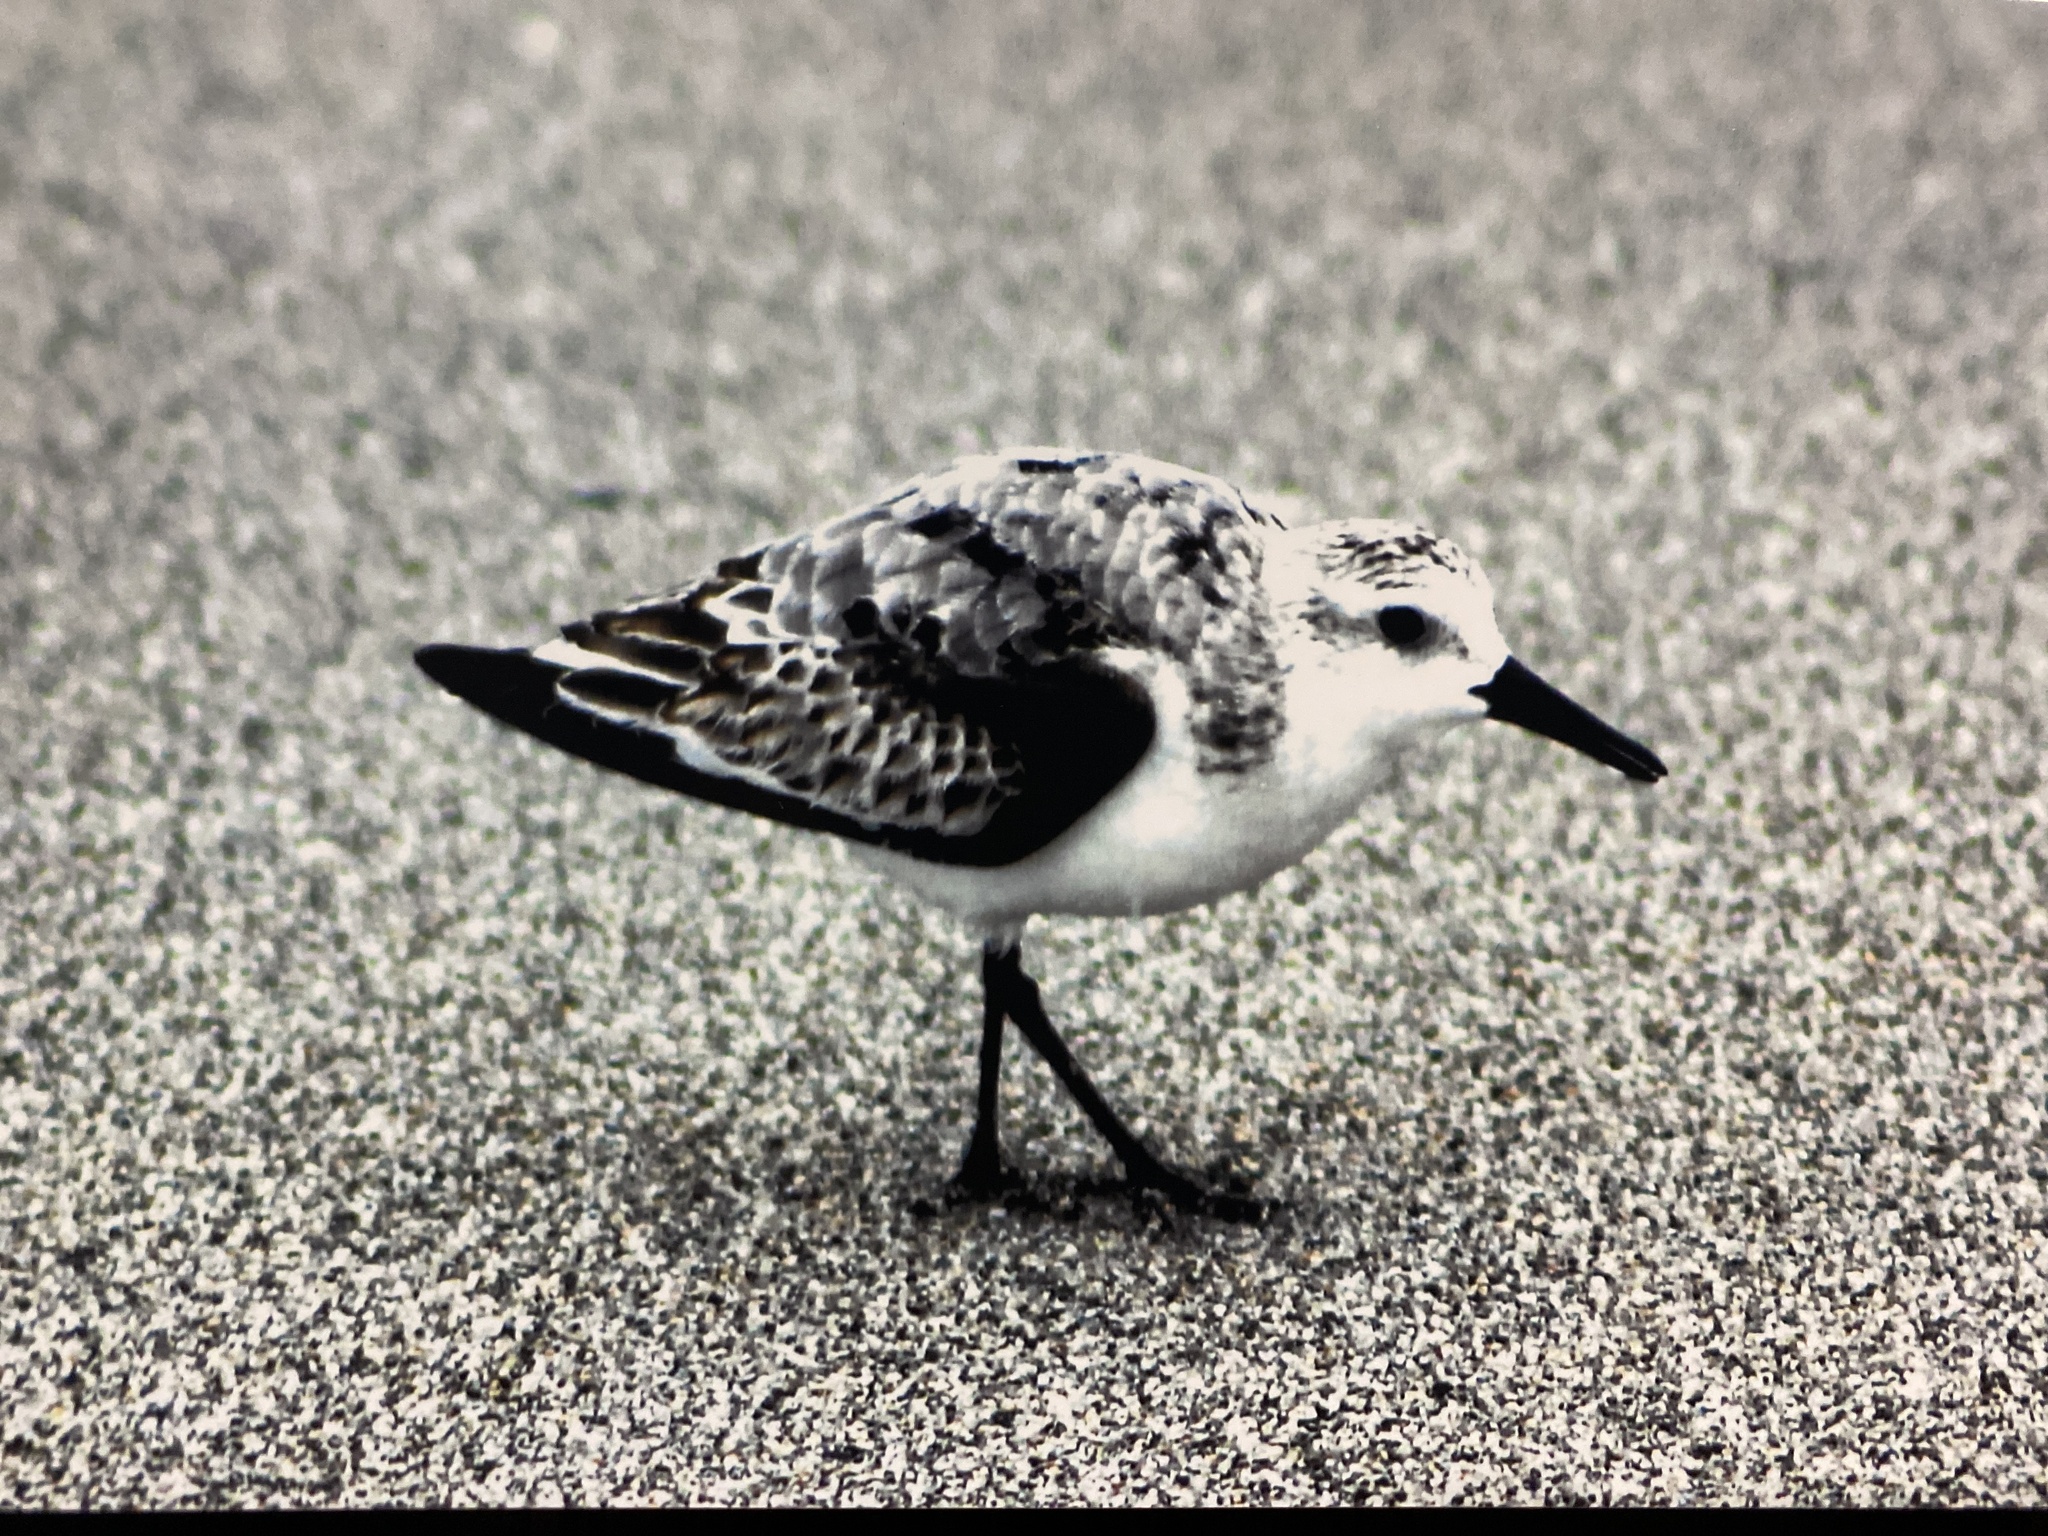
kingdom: Animalia
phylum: Chordata
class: Aves
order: Charadriiformes
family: Scolopacidae
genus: Calidris
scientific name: Calidris alba
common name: Sanderling
